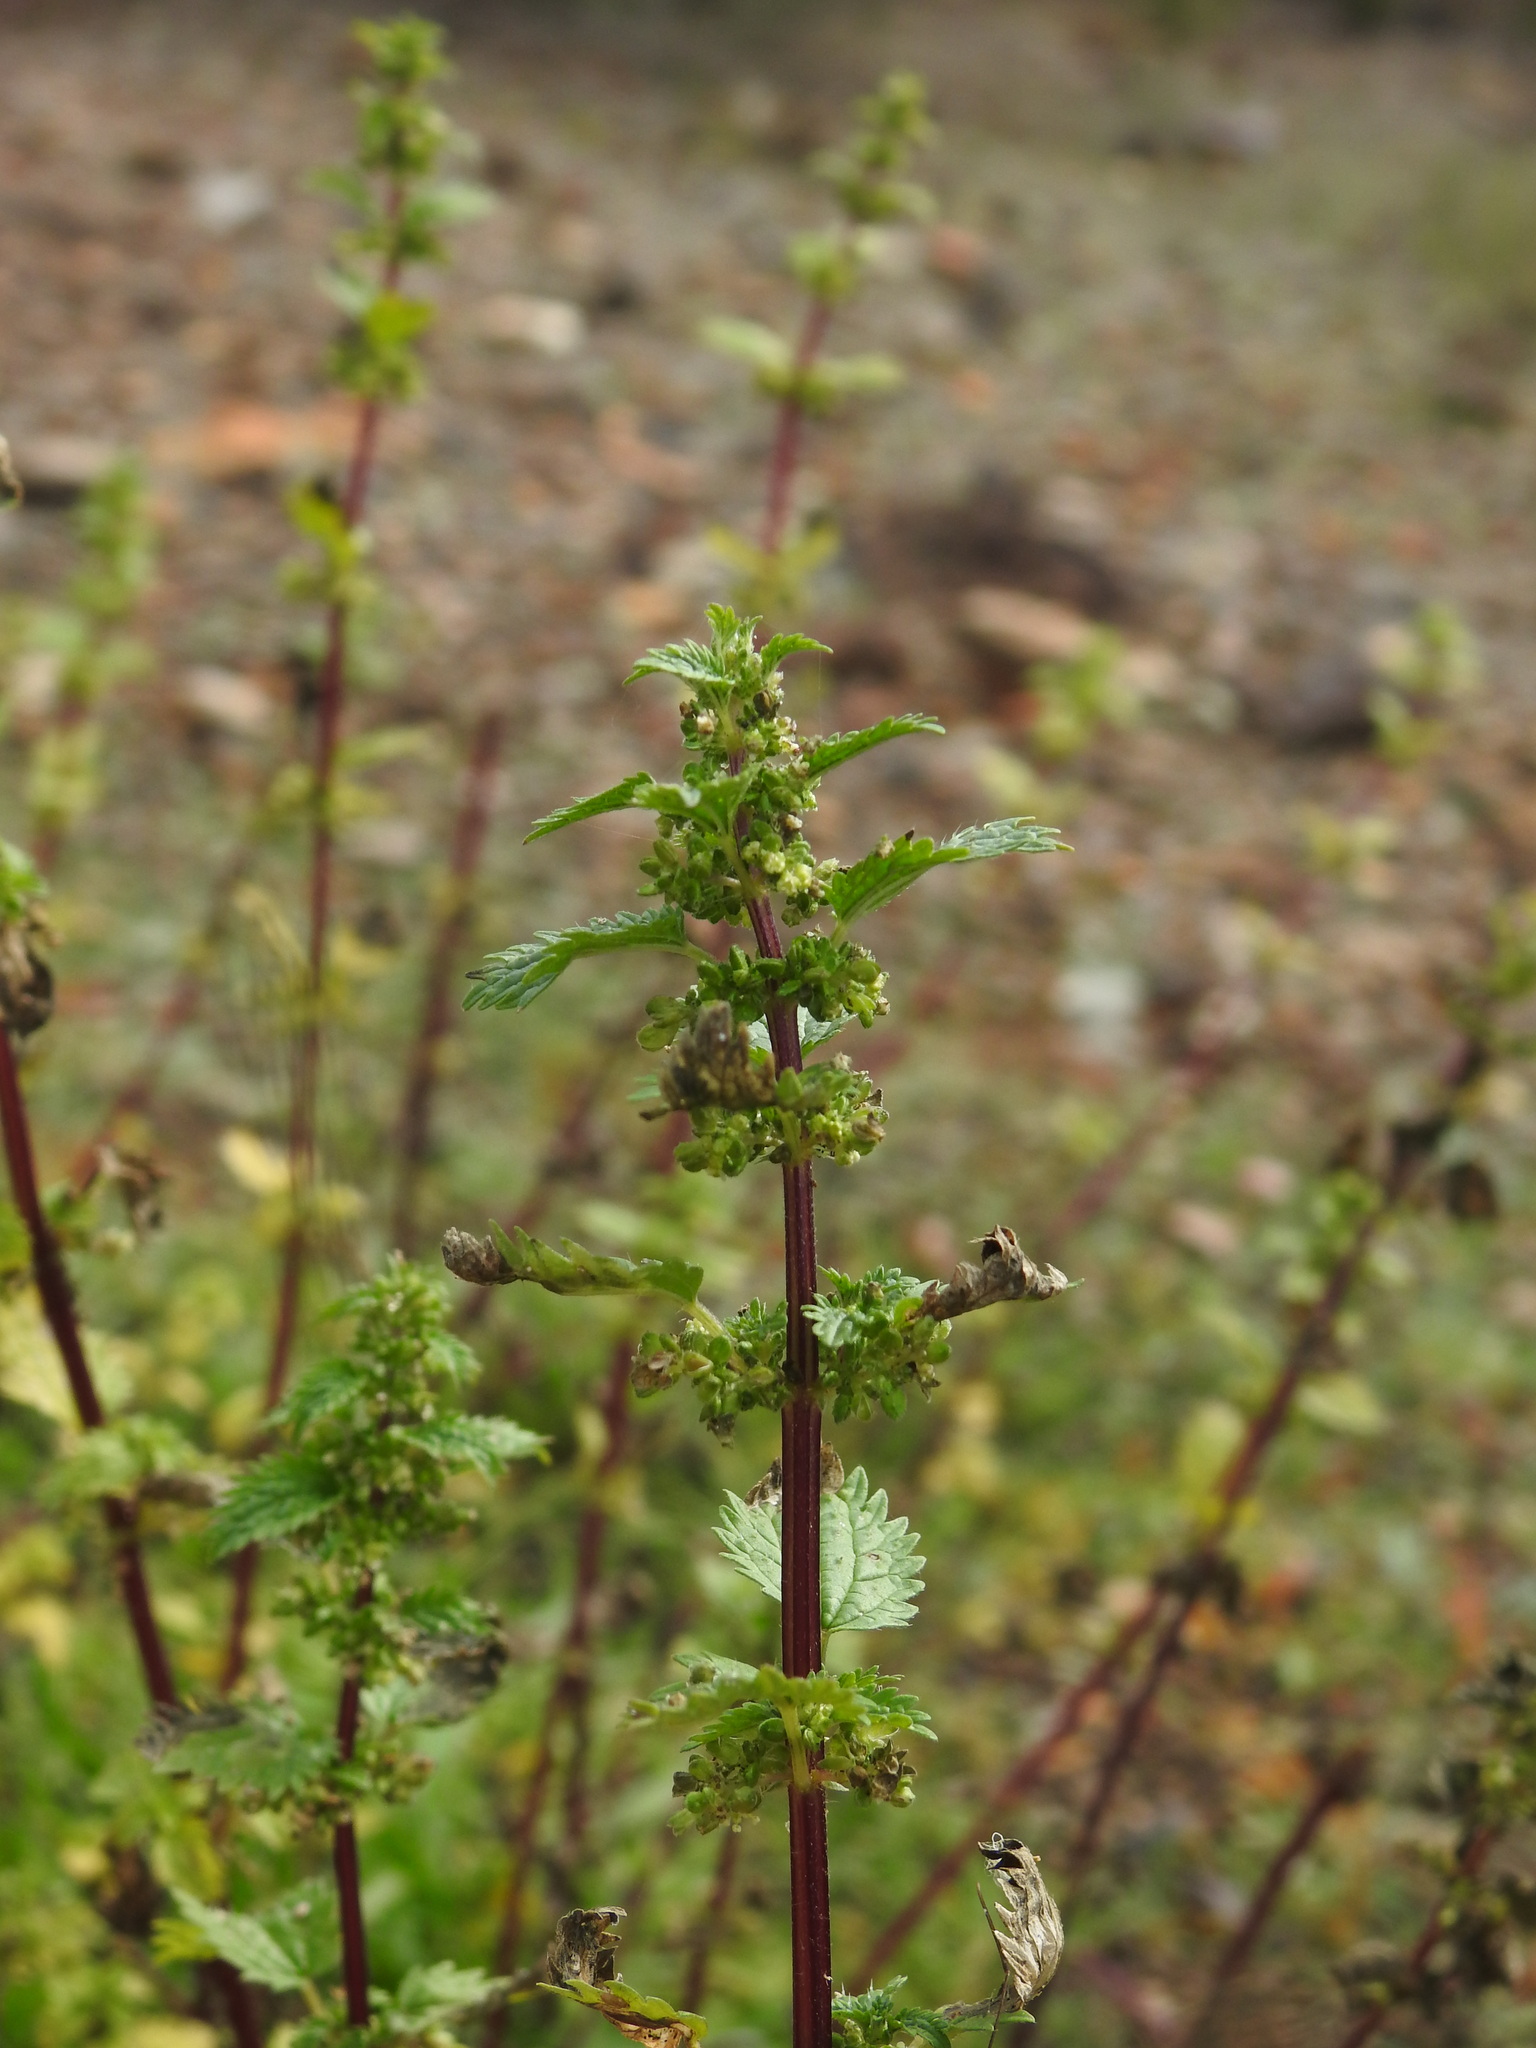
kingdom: Plantae
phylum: Tracheophyta
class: Magnoliopsida
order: Rosales
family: Urticaceae
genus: Urtica
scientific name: Urtica urens
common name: Dwarf nettle
